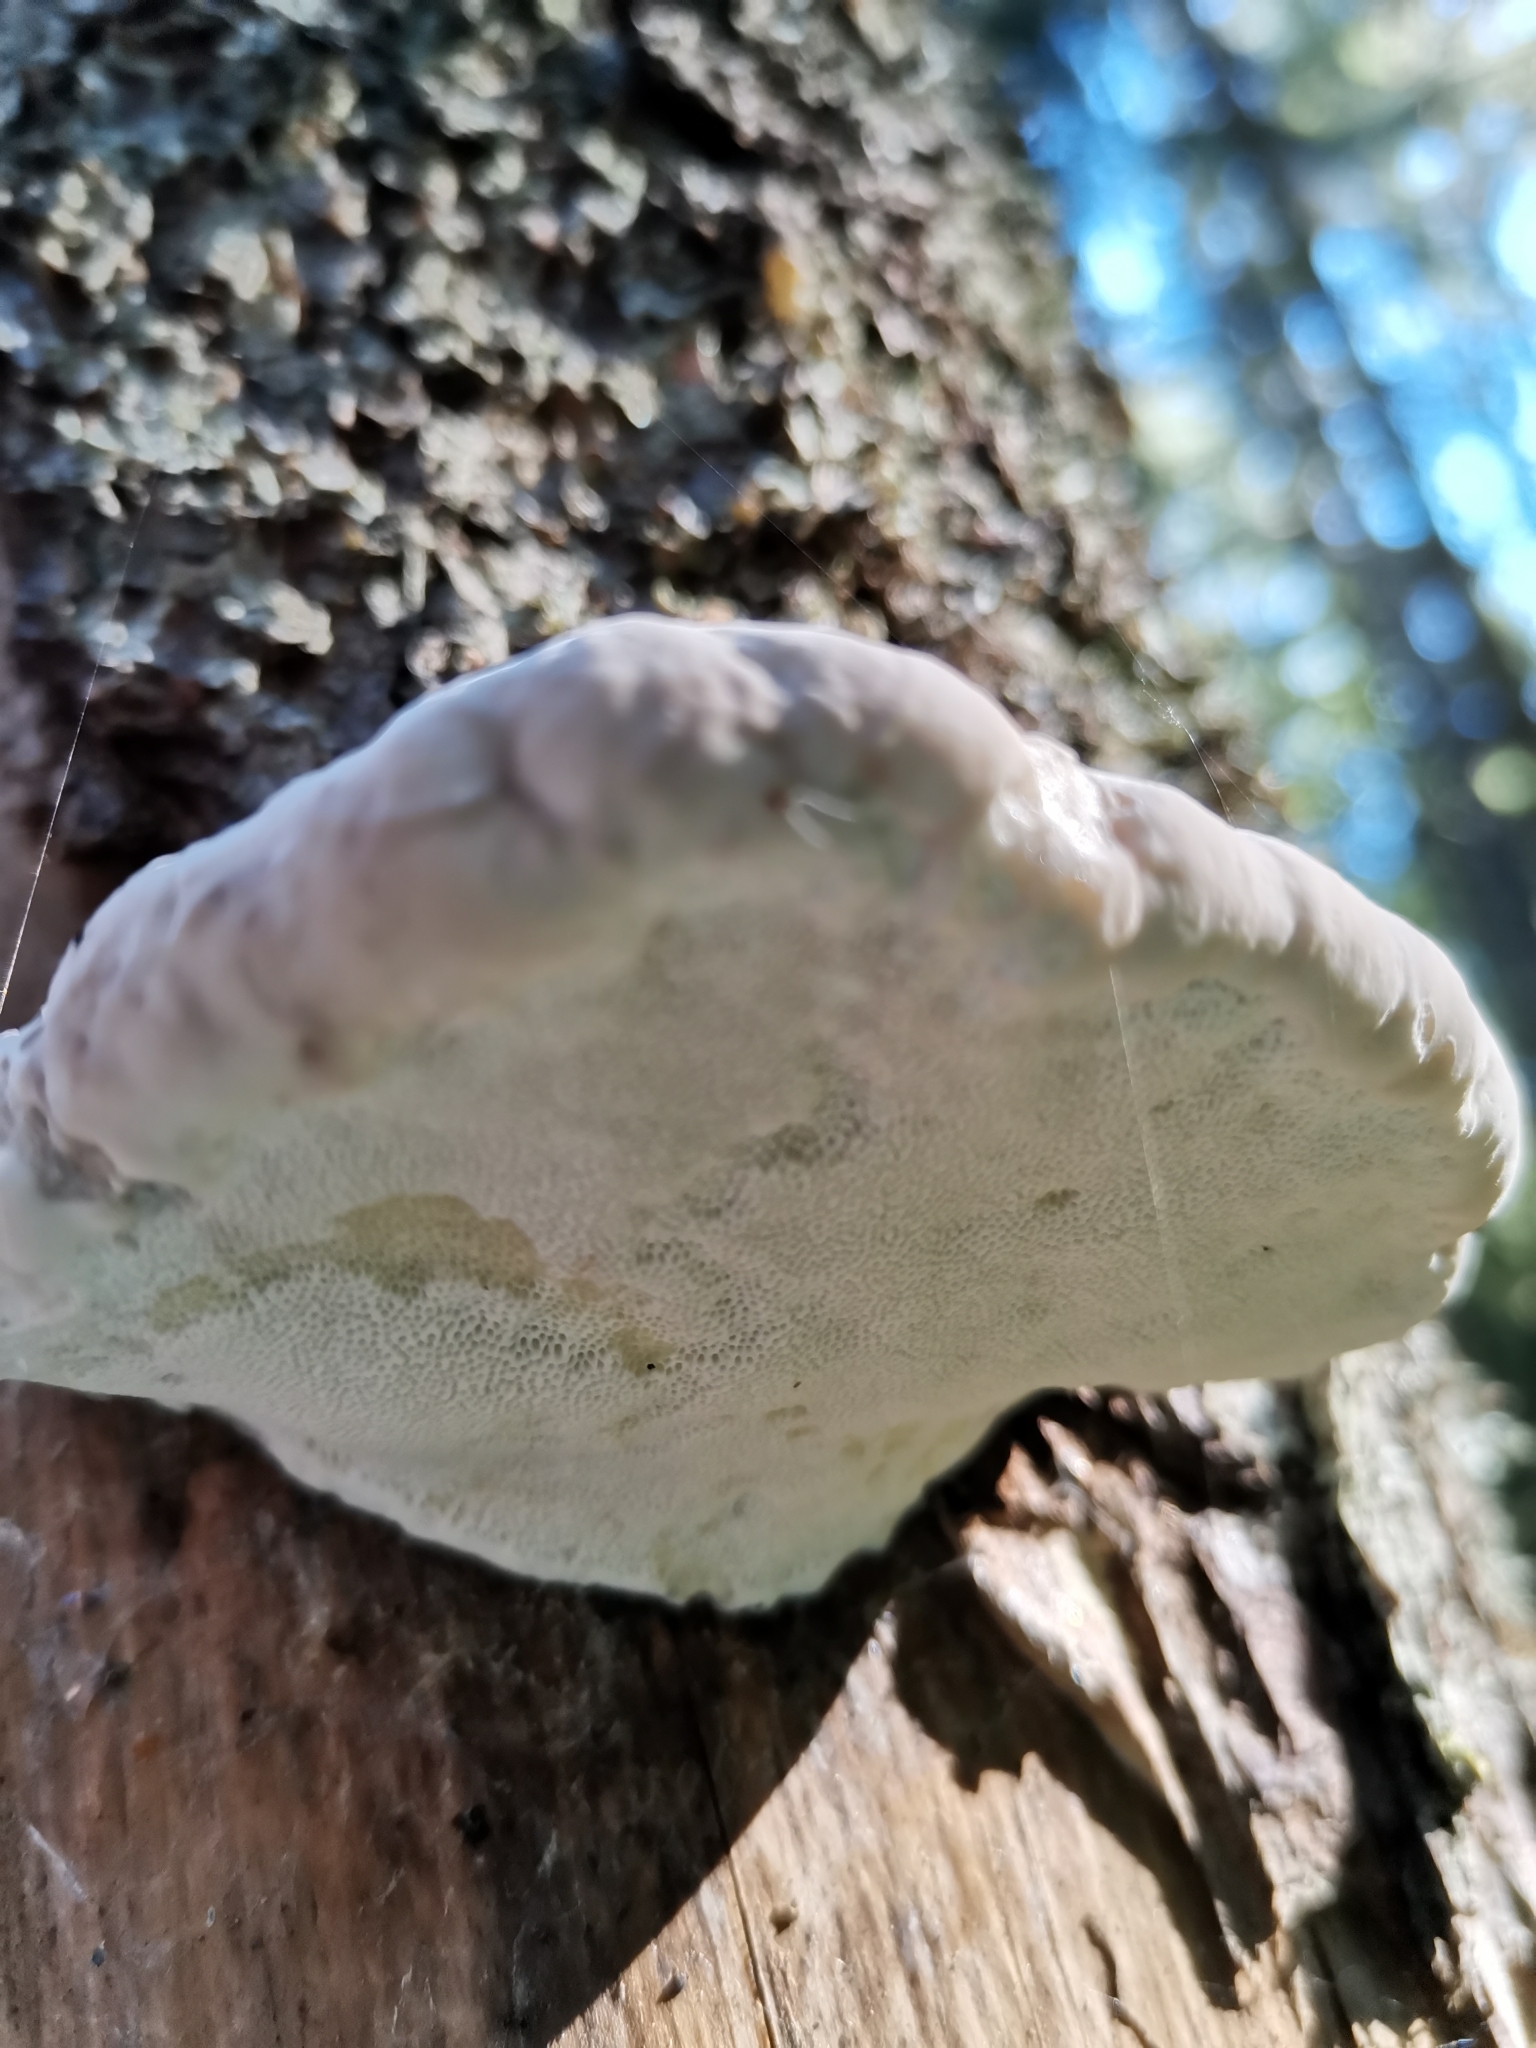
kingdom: Fungi
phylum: Basidiomycota
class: Agaricomycetes
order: Polyporales
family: Fomitopsidaceae
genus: Fomitopsis
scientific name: Fomitopsis pinicola
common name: Red-belted bracket
